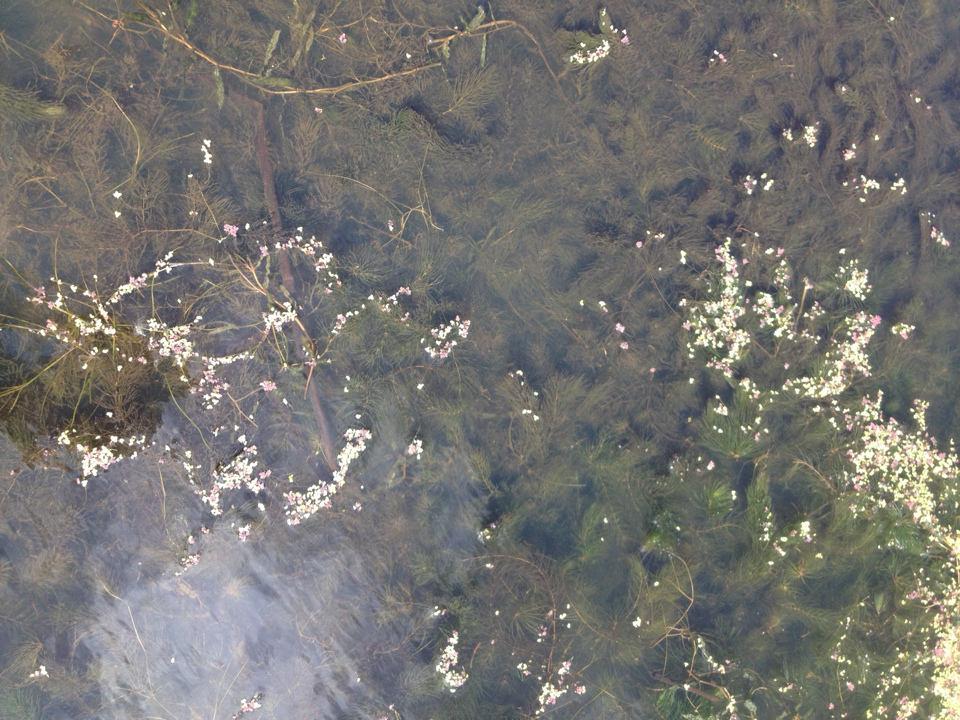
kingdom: Plantae
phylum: Tracheophyta
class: Magnoliopsida
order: Ceratophyllales
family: Ceratophyllaceae
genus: Ceratophyllum
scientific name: Ceratophyllum demersum
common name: Rigid hornwort
